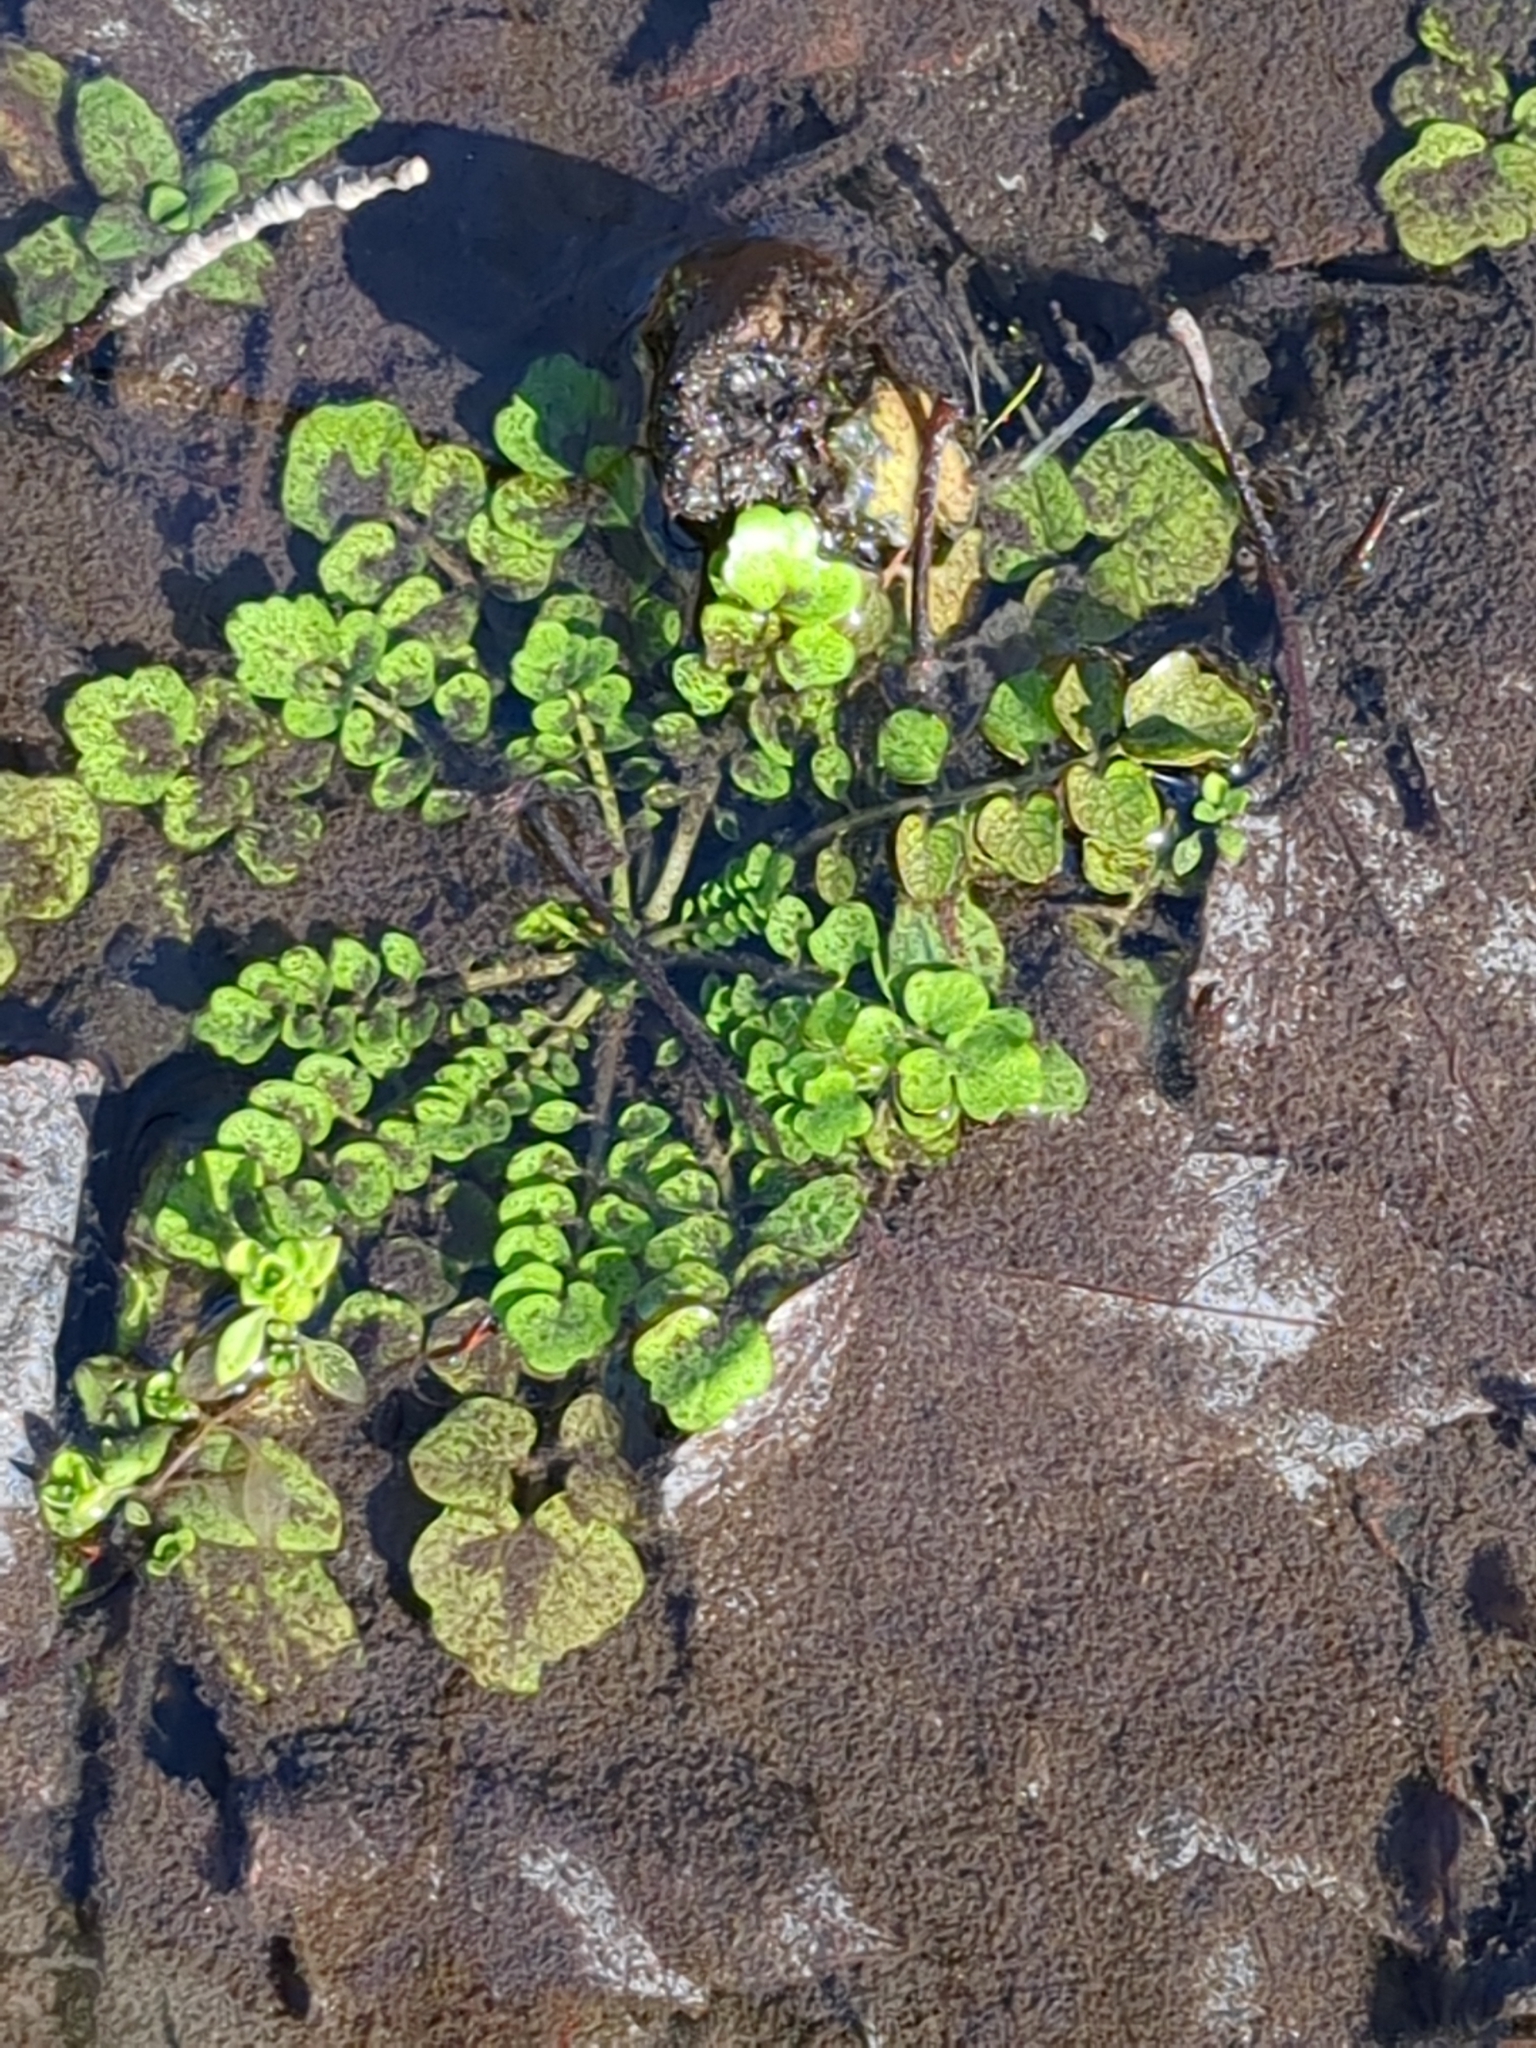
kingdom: Plantae
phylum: Tracheophyta
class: Magnoliopsida
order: Brassicales
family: Brassicaceae
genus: Cardamine
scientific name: Cardamine pensylvanica
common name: Pennsylvania bittercress
